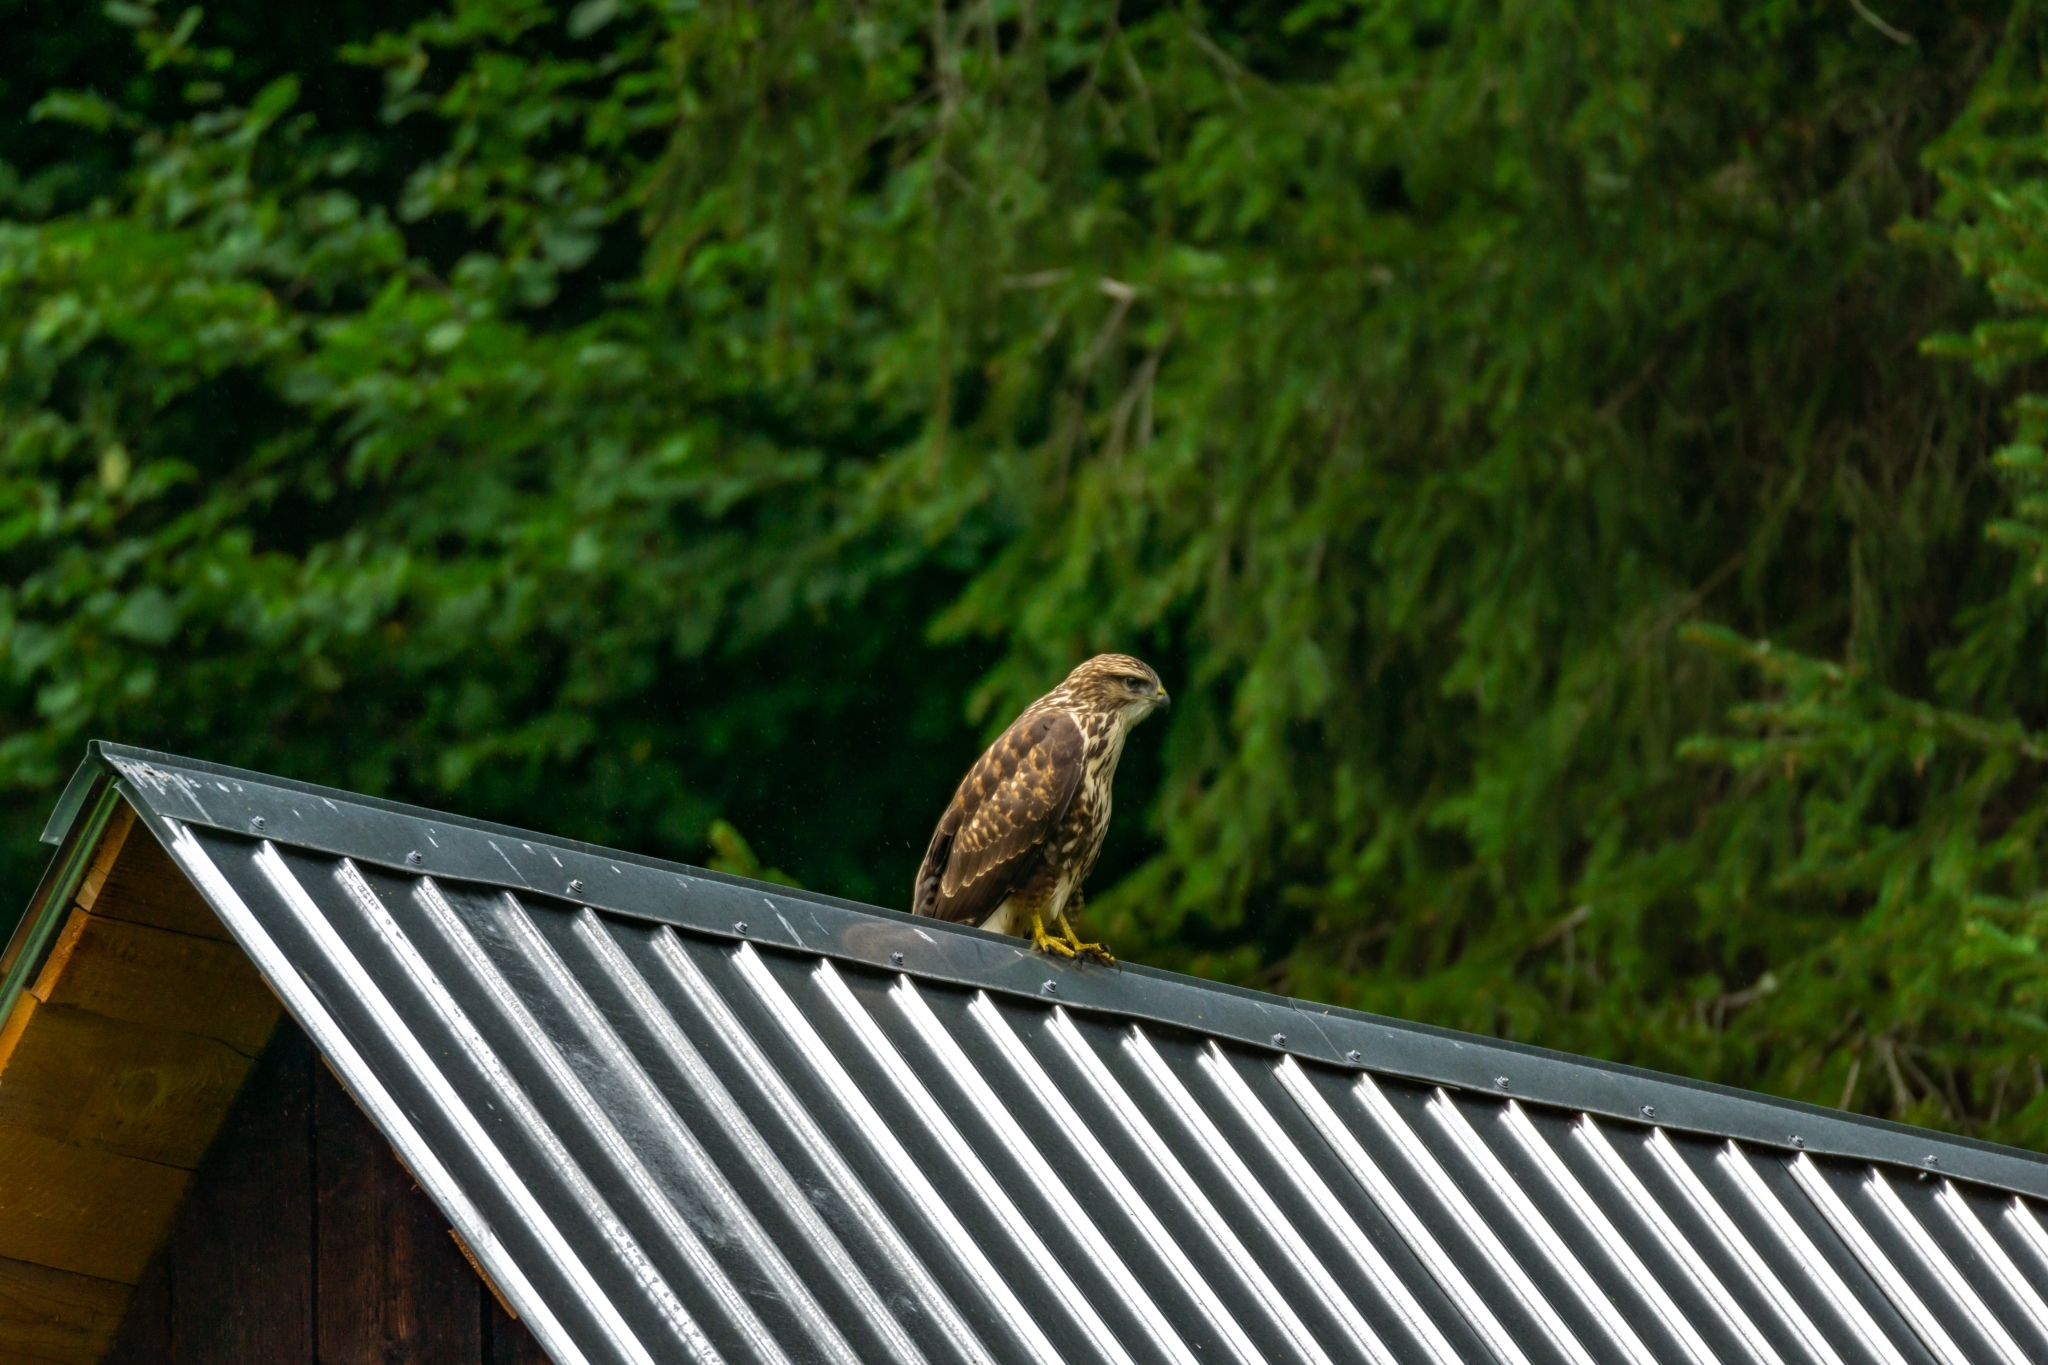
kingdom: Animalia
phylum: Chordata
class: Aves
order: Accipitriformes
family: Accipitridae
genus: Buteo
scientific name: Buteo buteo
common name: Common buzzard
